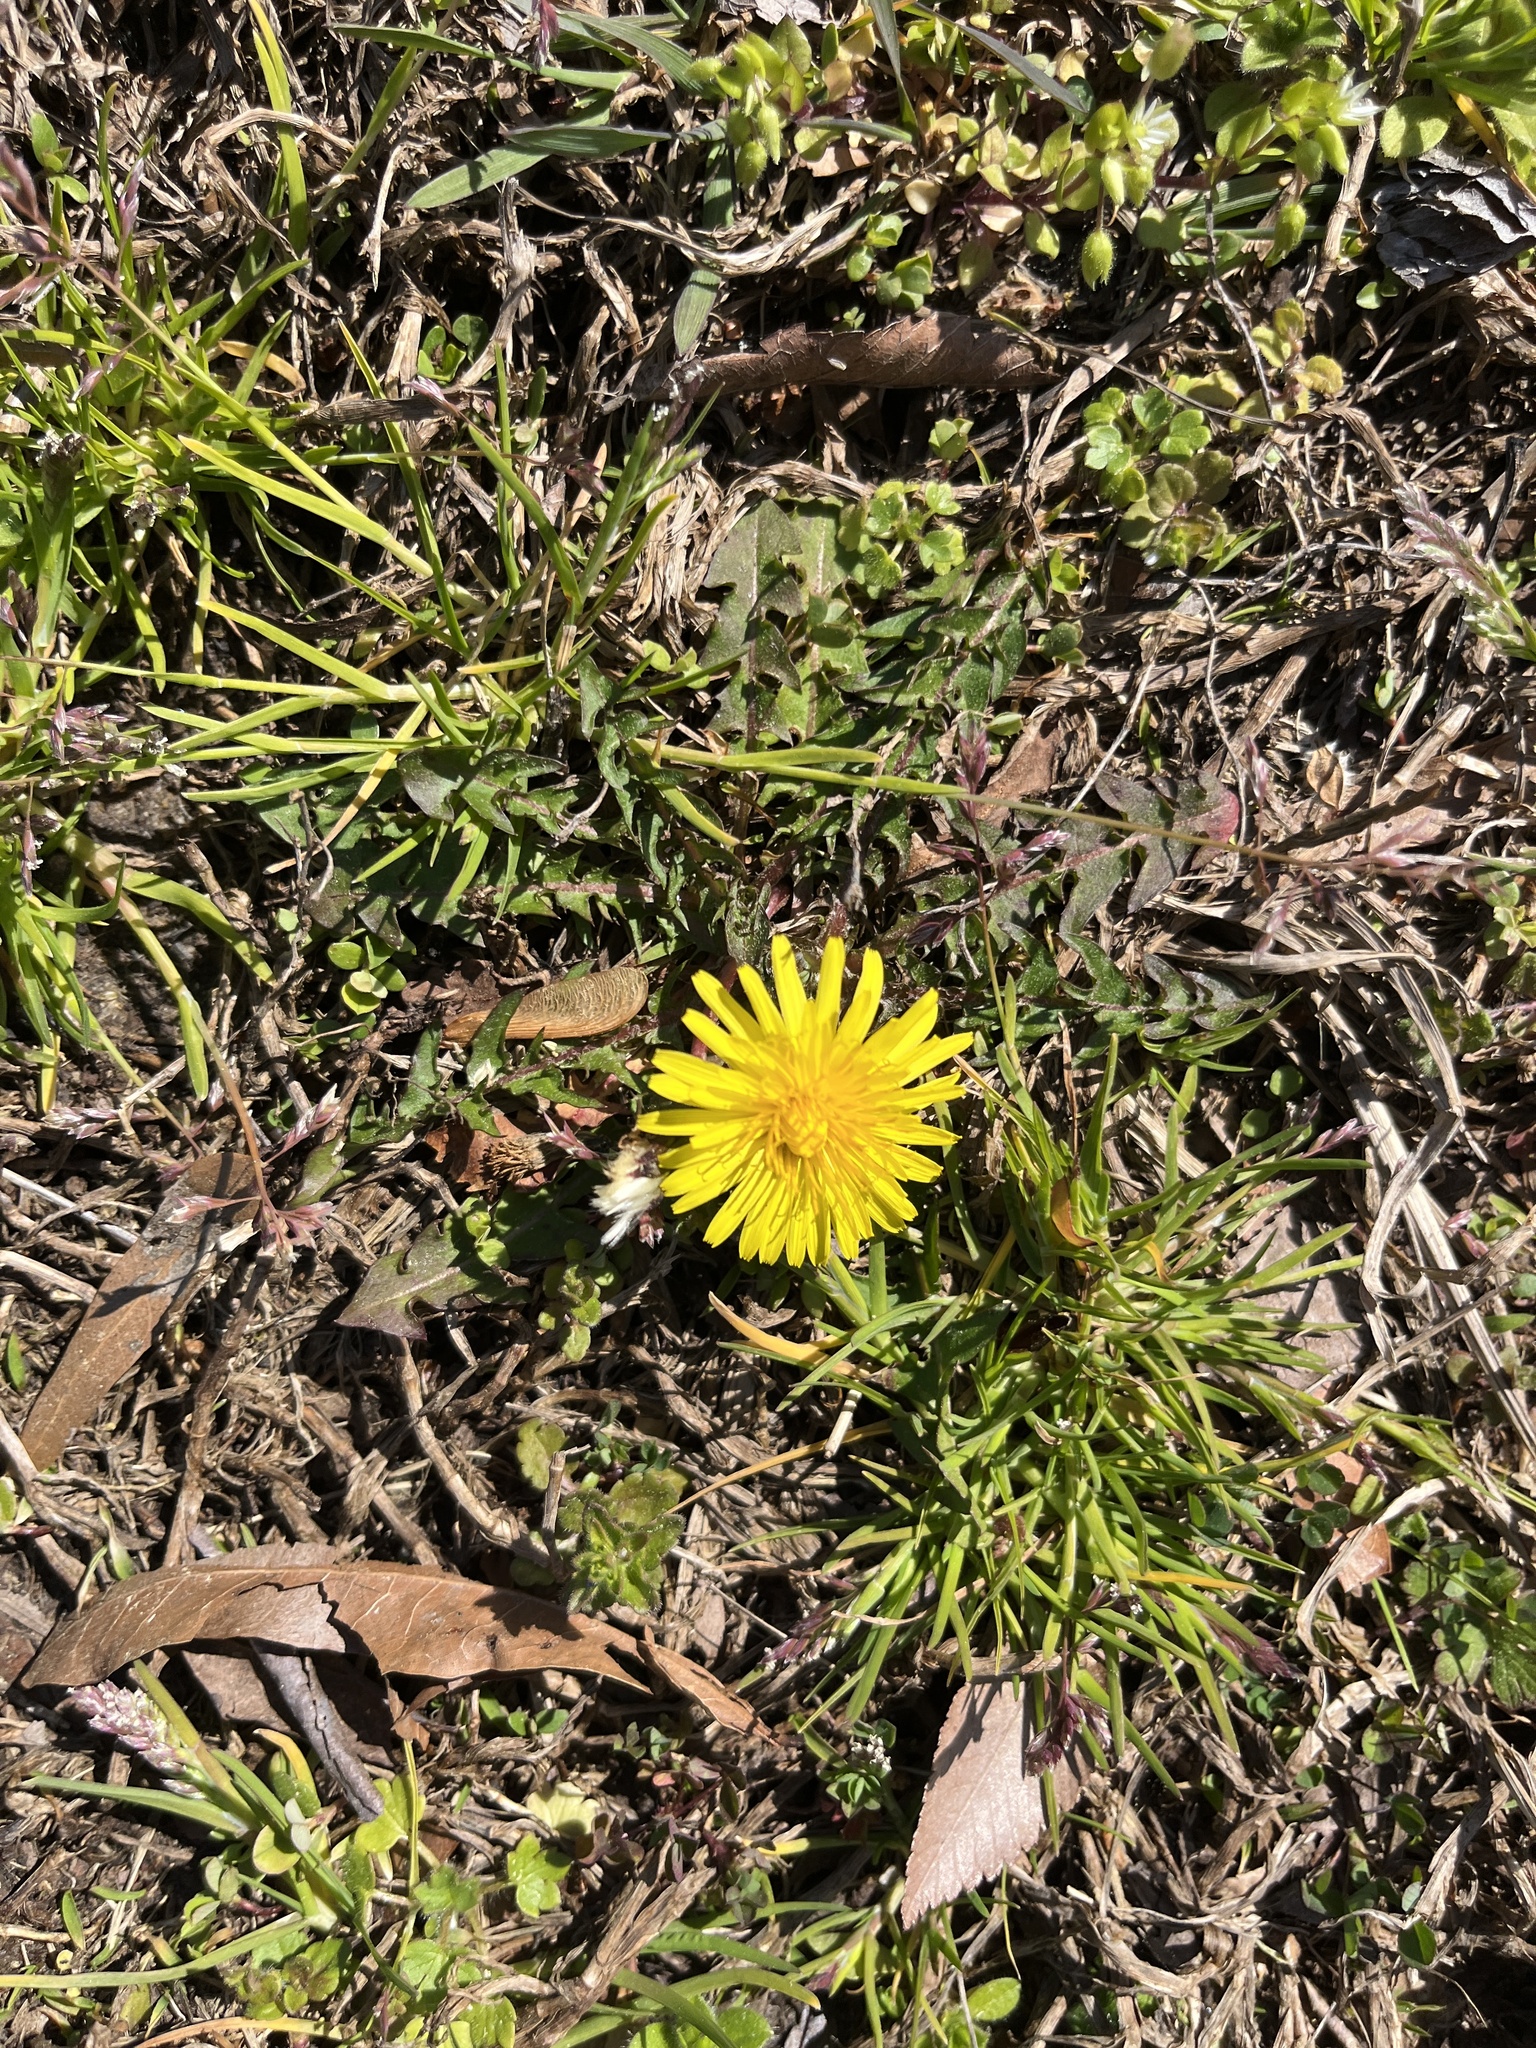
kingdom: Plantae
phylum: Tracheophyta
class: Magnoliopsida
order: Asterales
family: Asteraceae
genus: Taraxacum
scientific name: Taraxacum
